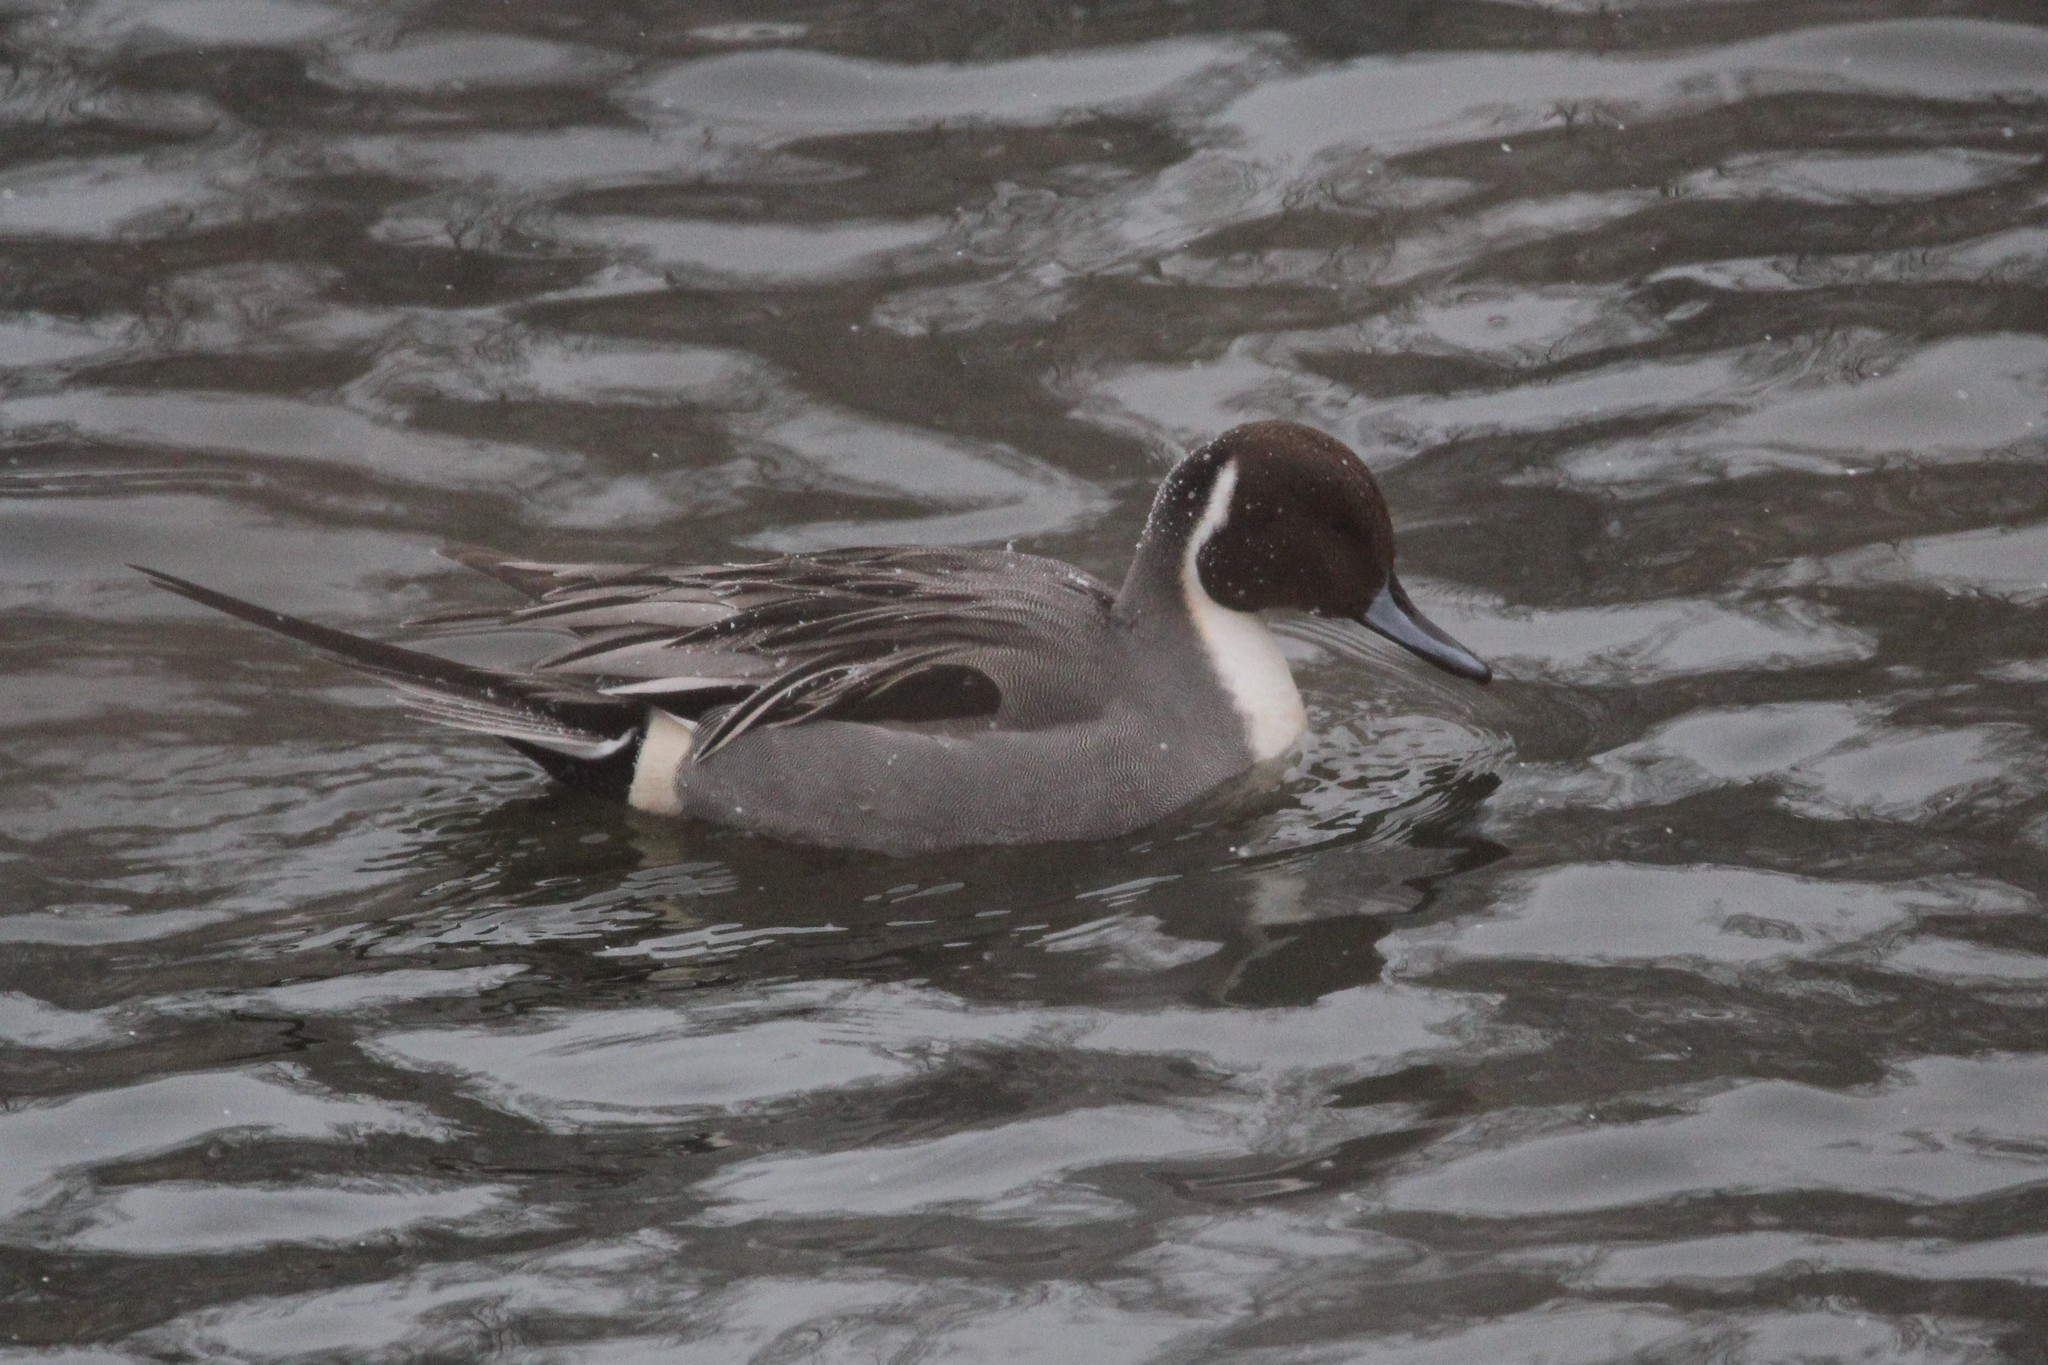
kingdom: Animalia
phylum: Chordata
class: Aves
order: Anseriformes
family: Anatidae
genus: Anas
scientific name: Anas acuta
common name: Northern pintail
